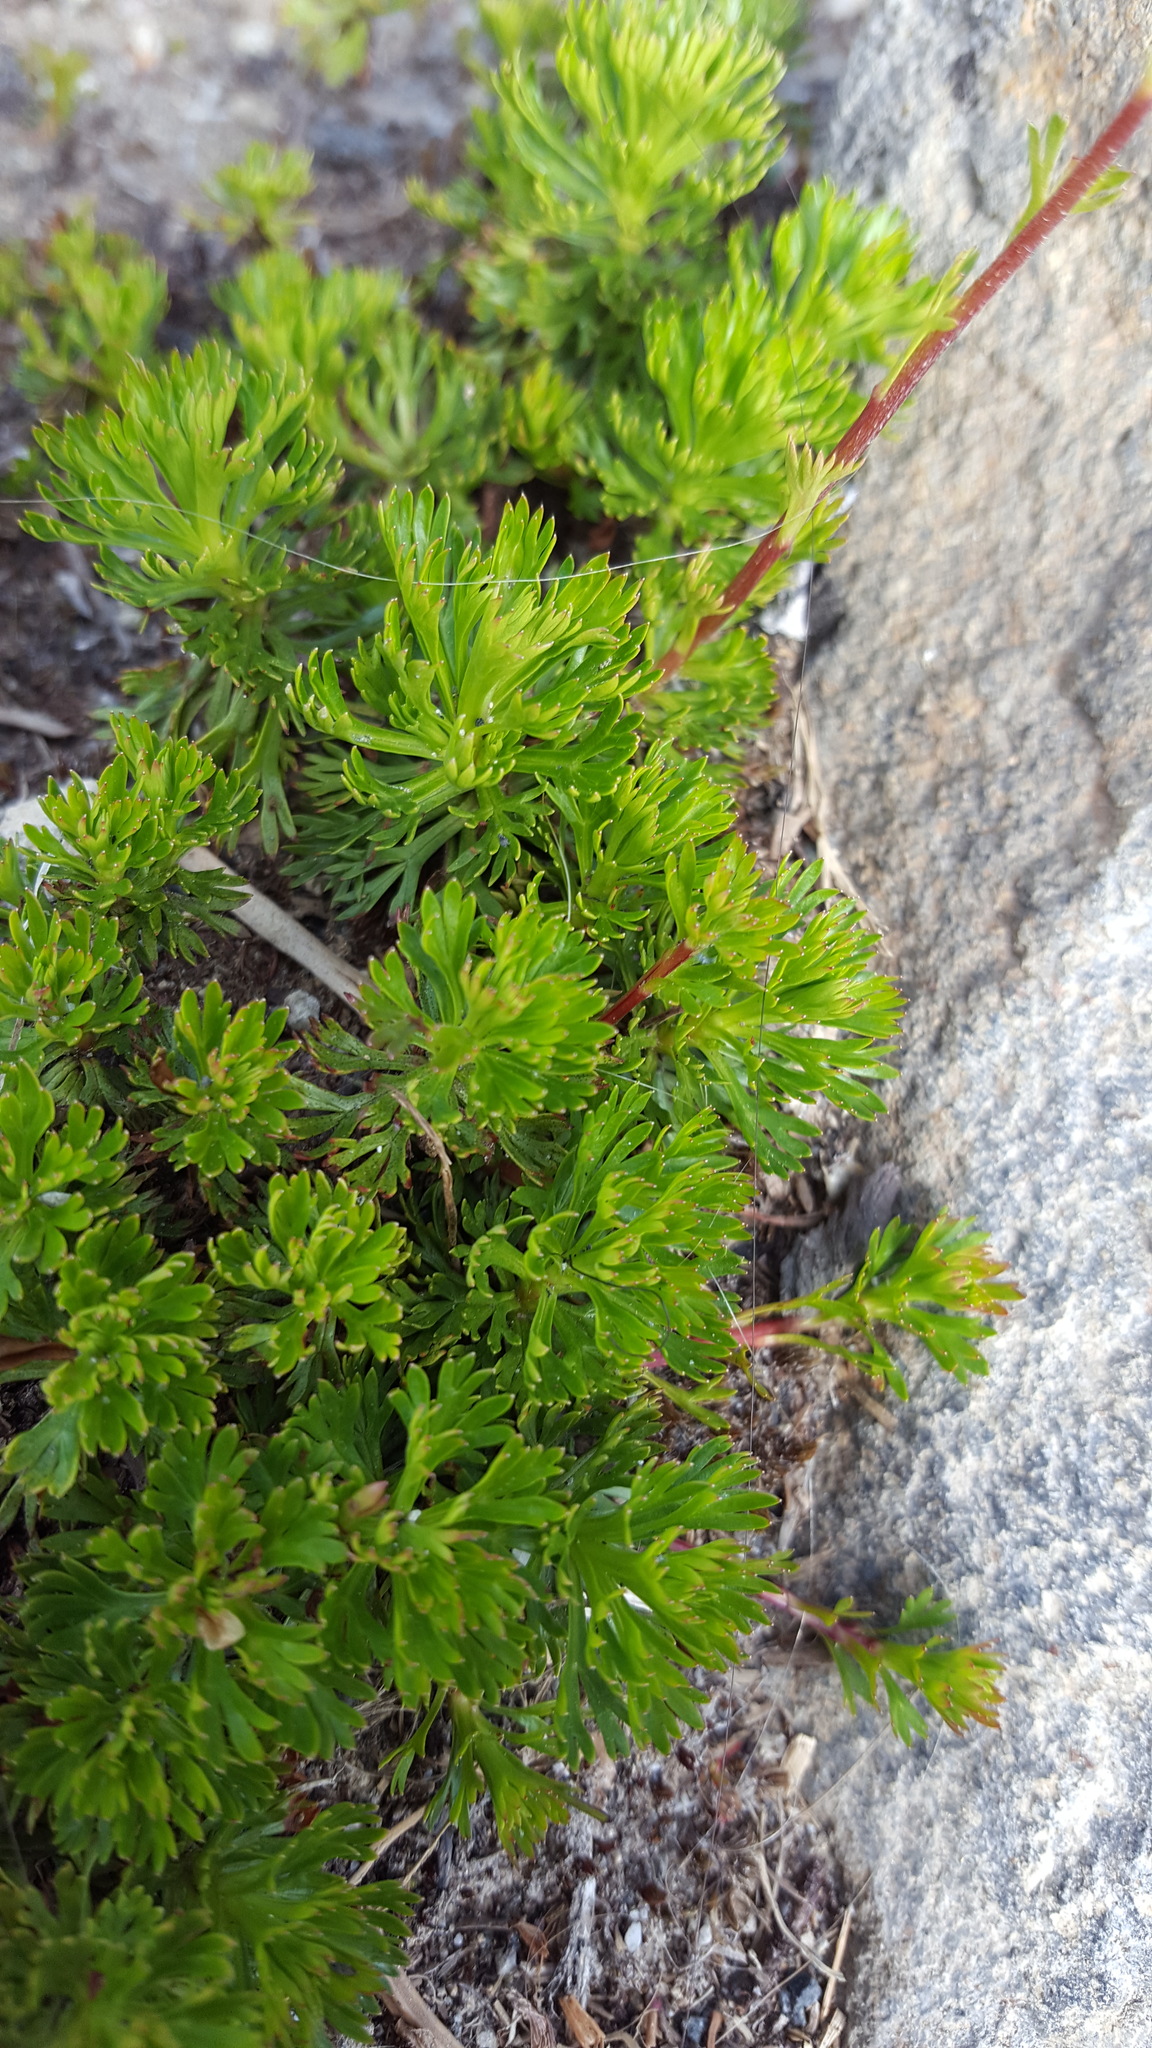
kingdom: Plantae
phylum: Tracheophyta
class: Magnoliopsida
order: Rosales
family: Rosaceae
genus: Luetkea
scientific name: Luetkea pectinata
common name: Partridgefoot
